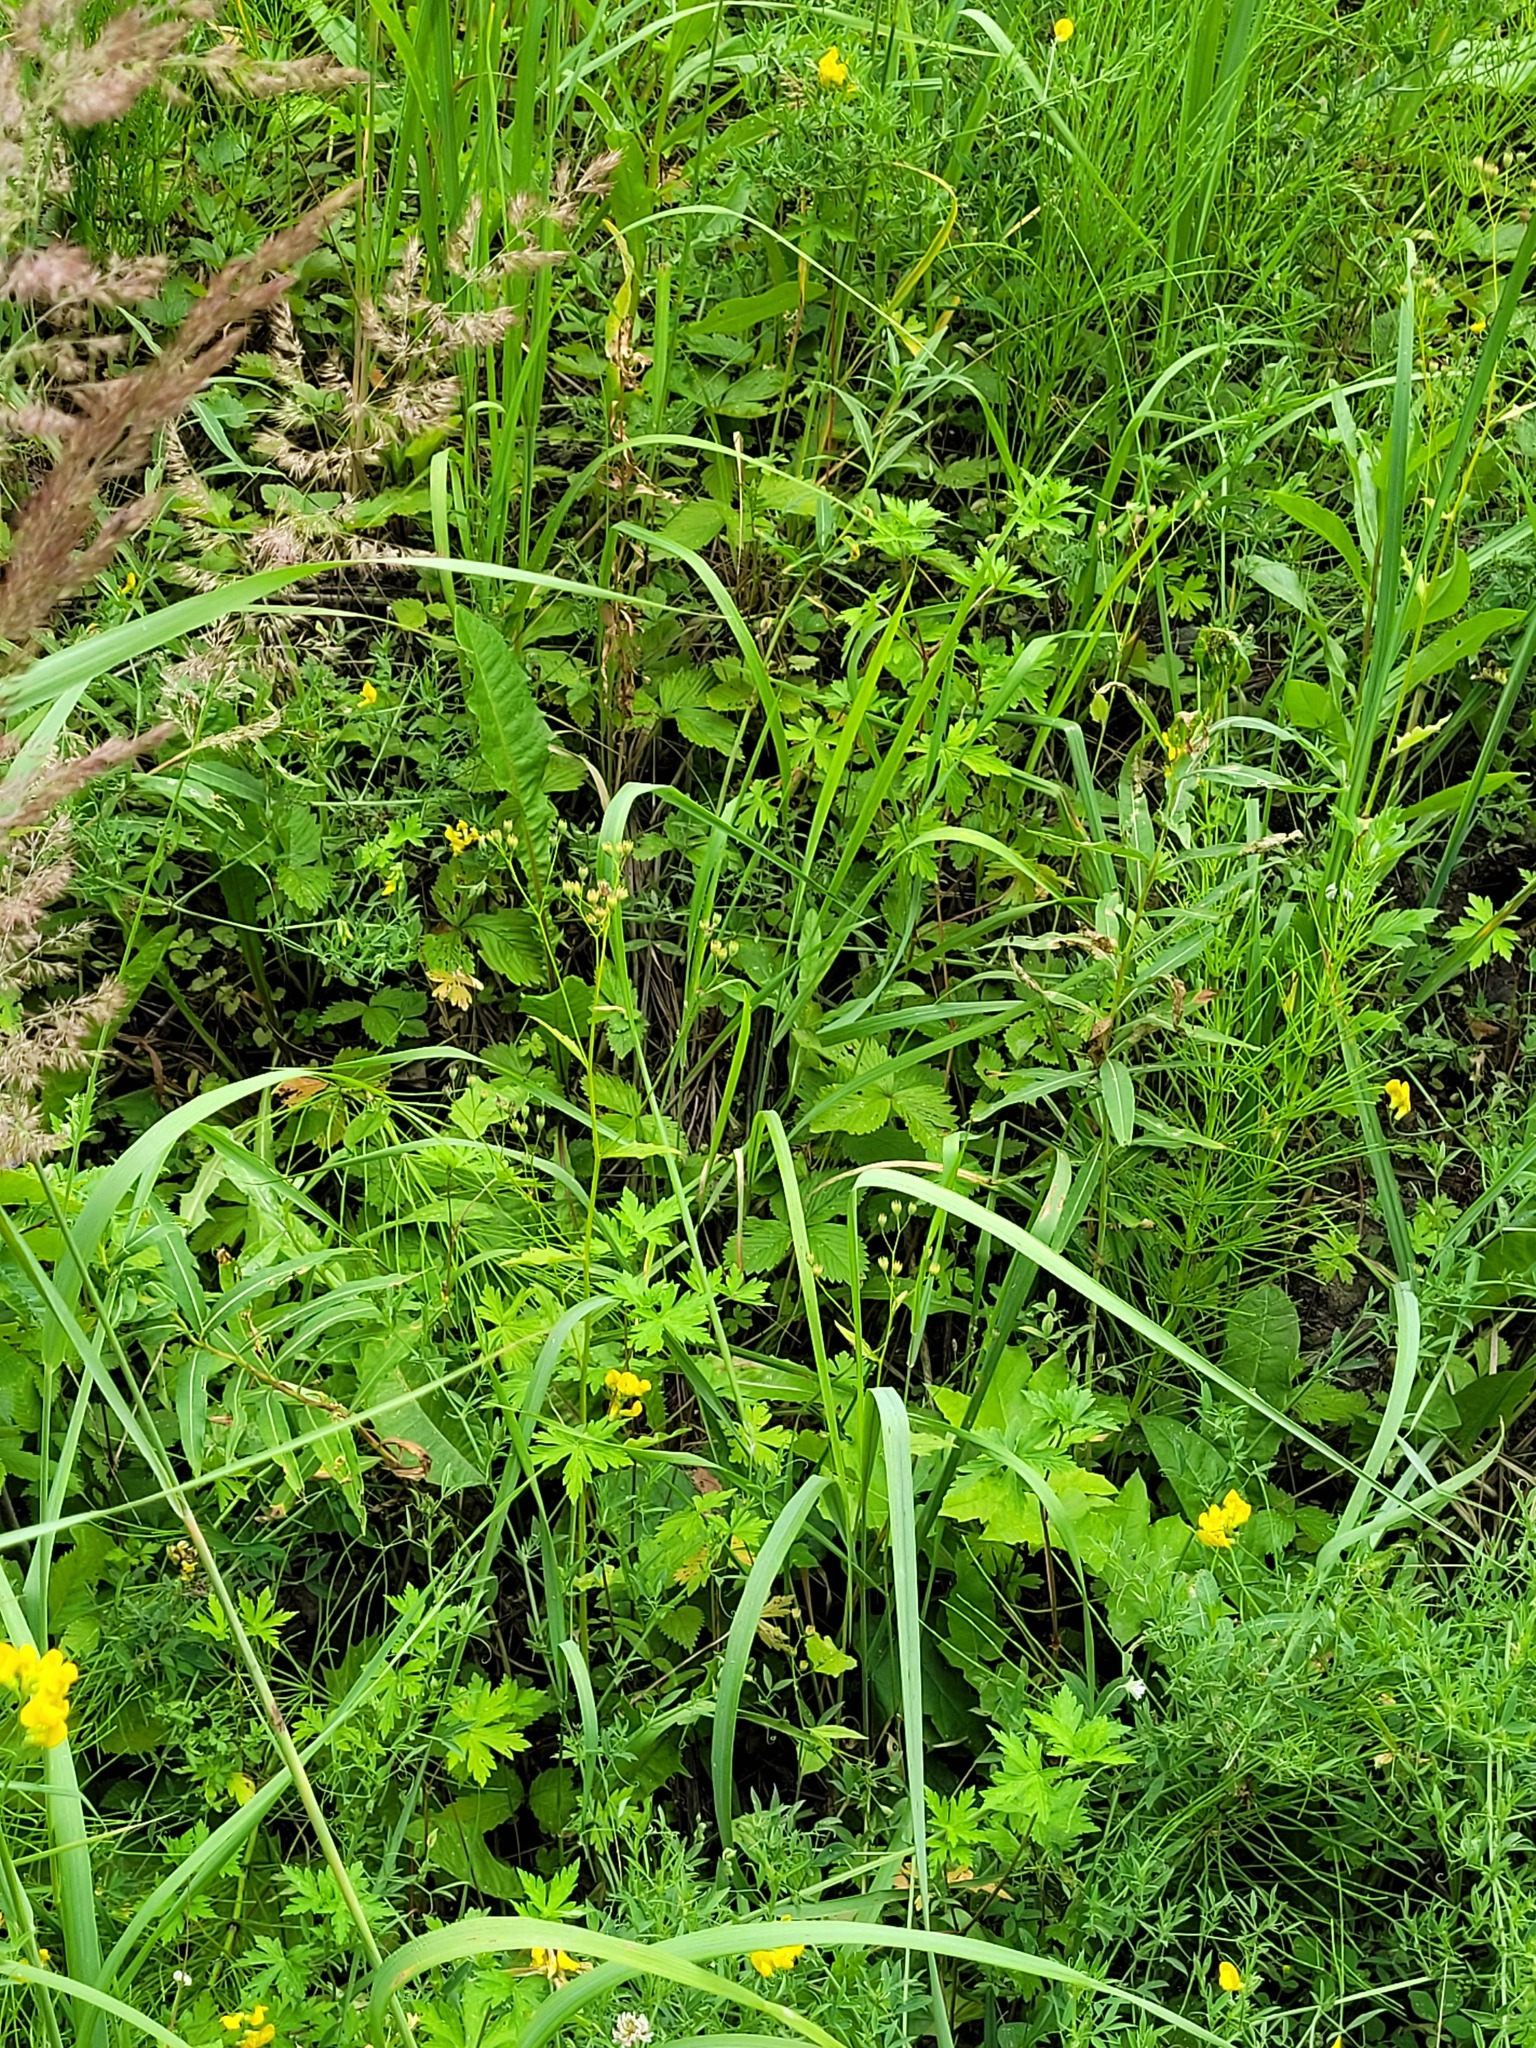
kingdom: Plantae
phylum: Tracheophyta
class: Magnoliopsida
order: Asterales
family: Asteraceae
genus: Lapsana
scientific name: Lapsana communis
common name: Nipplewort
